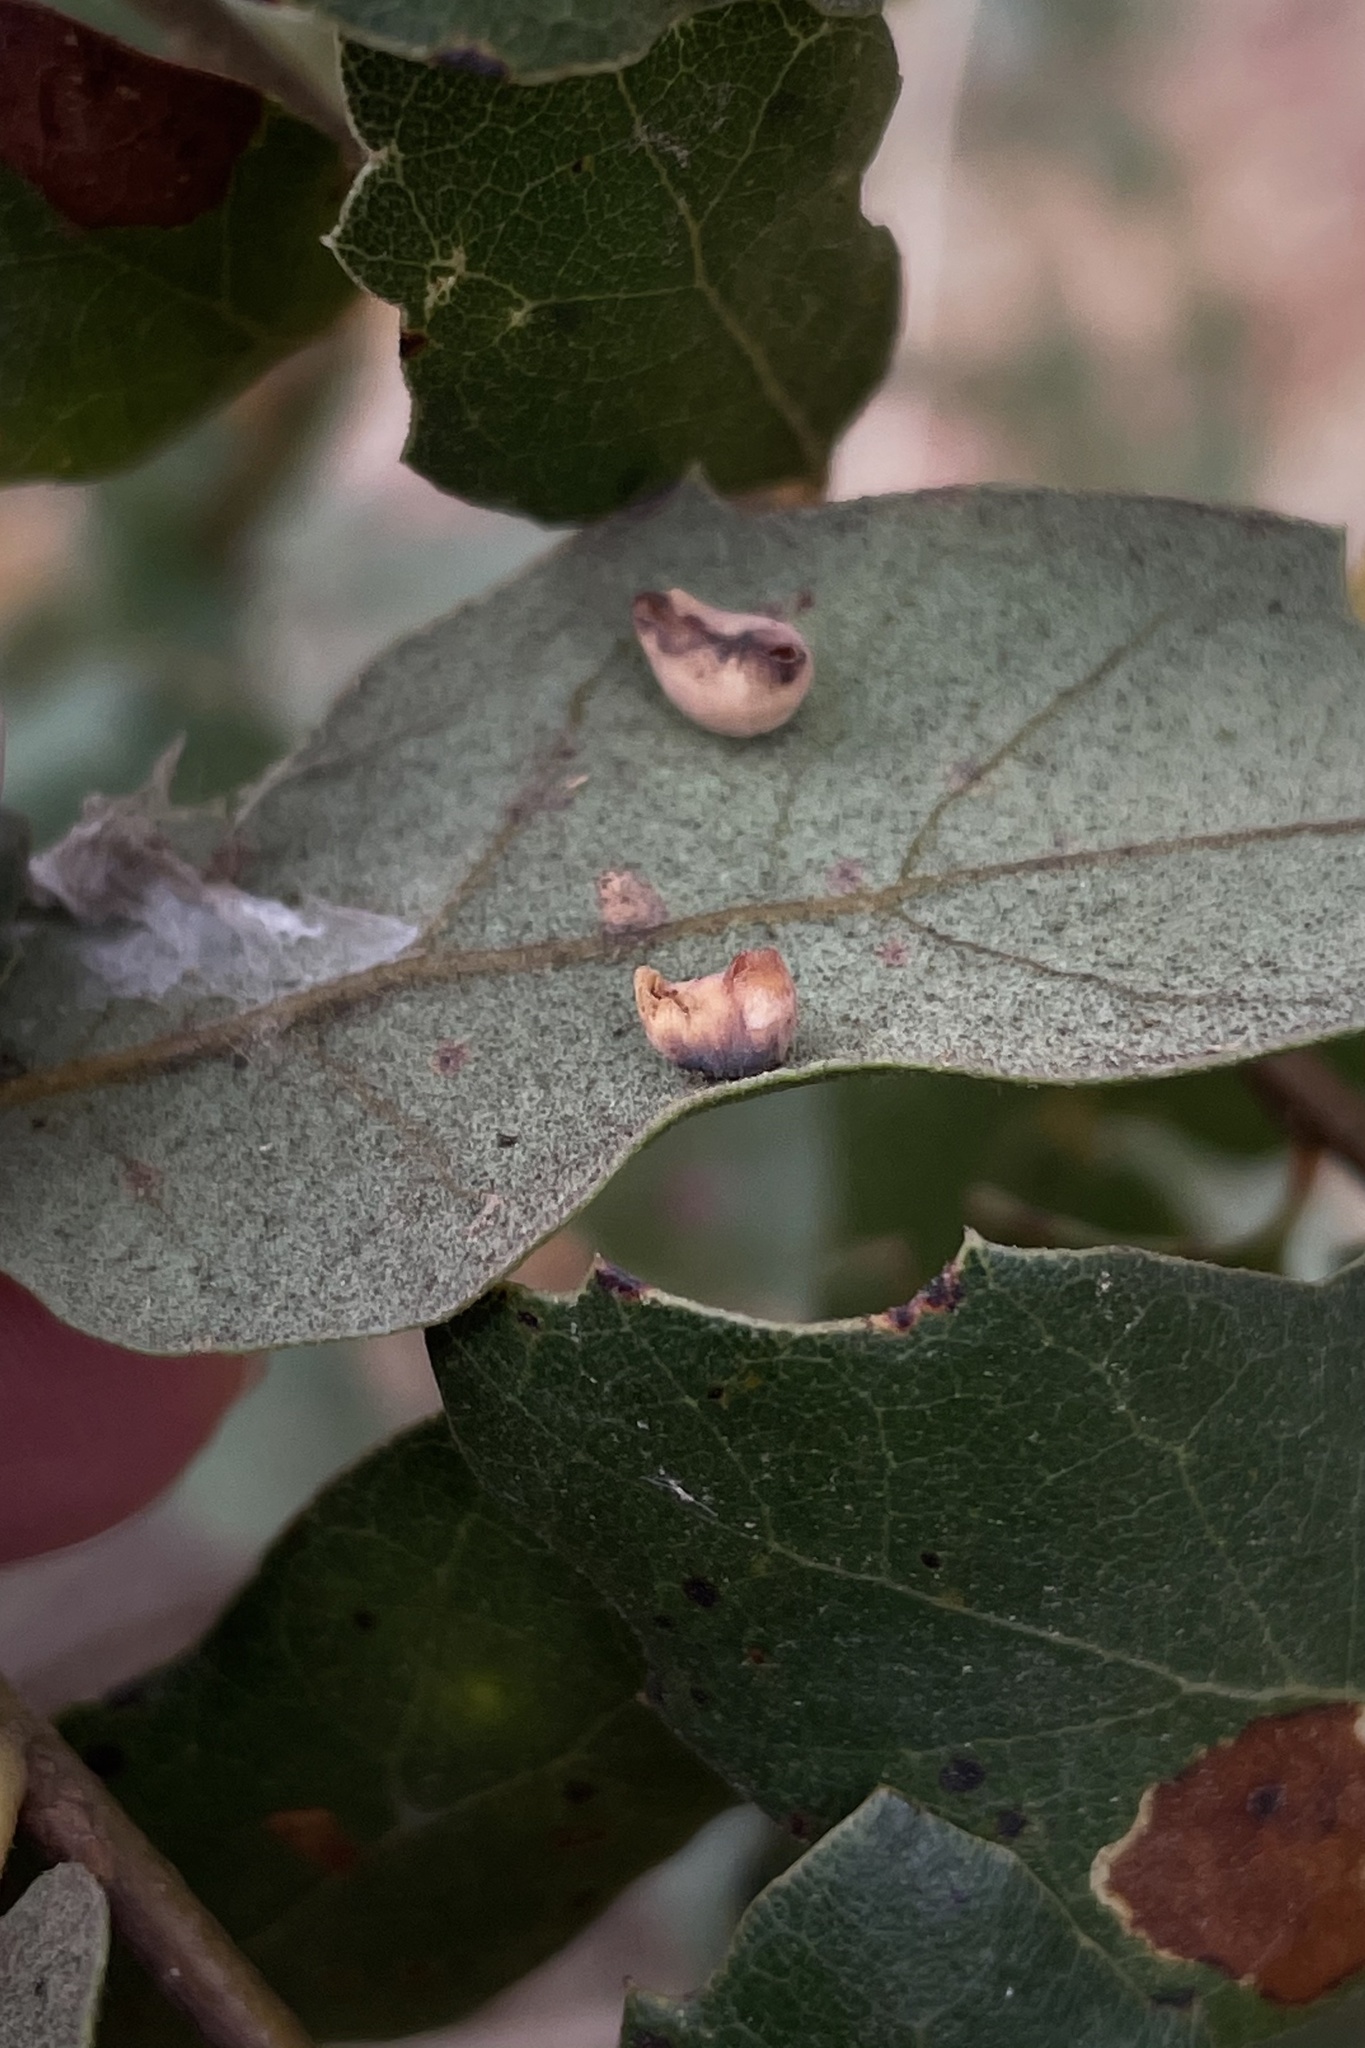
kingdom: Animalia
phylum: Arthropoda
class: Insecta
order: Hymenoptera
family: Cynipidae
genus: Andricus
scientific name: Andricus
